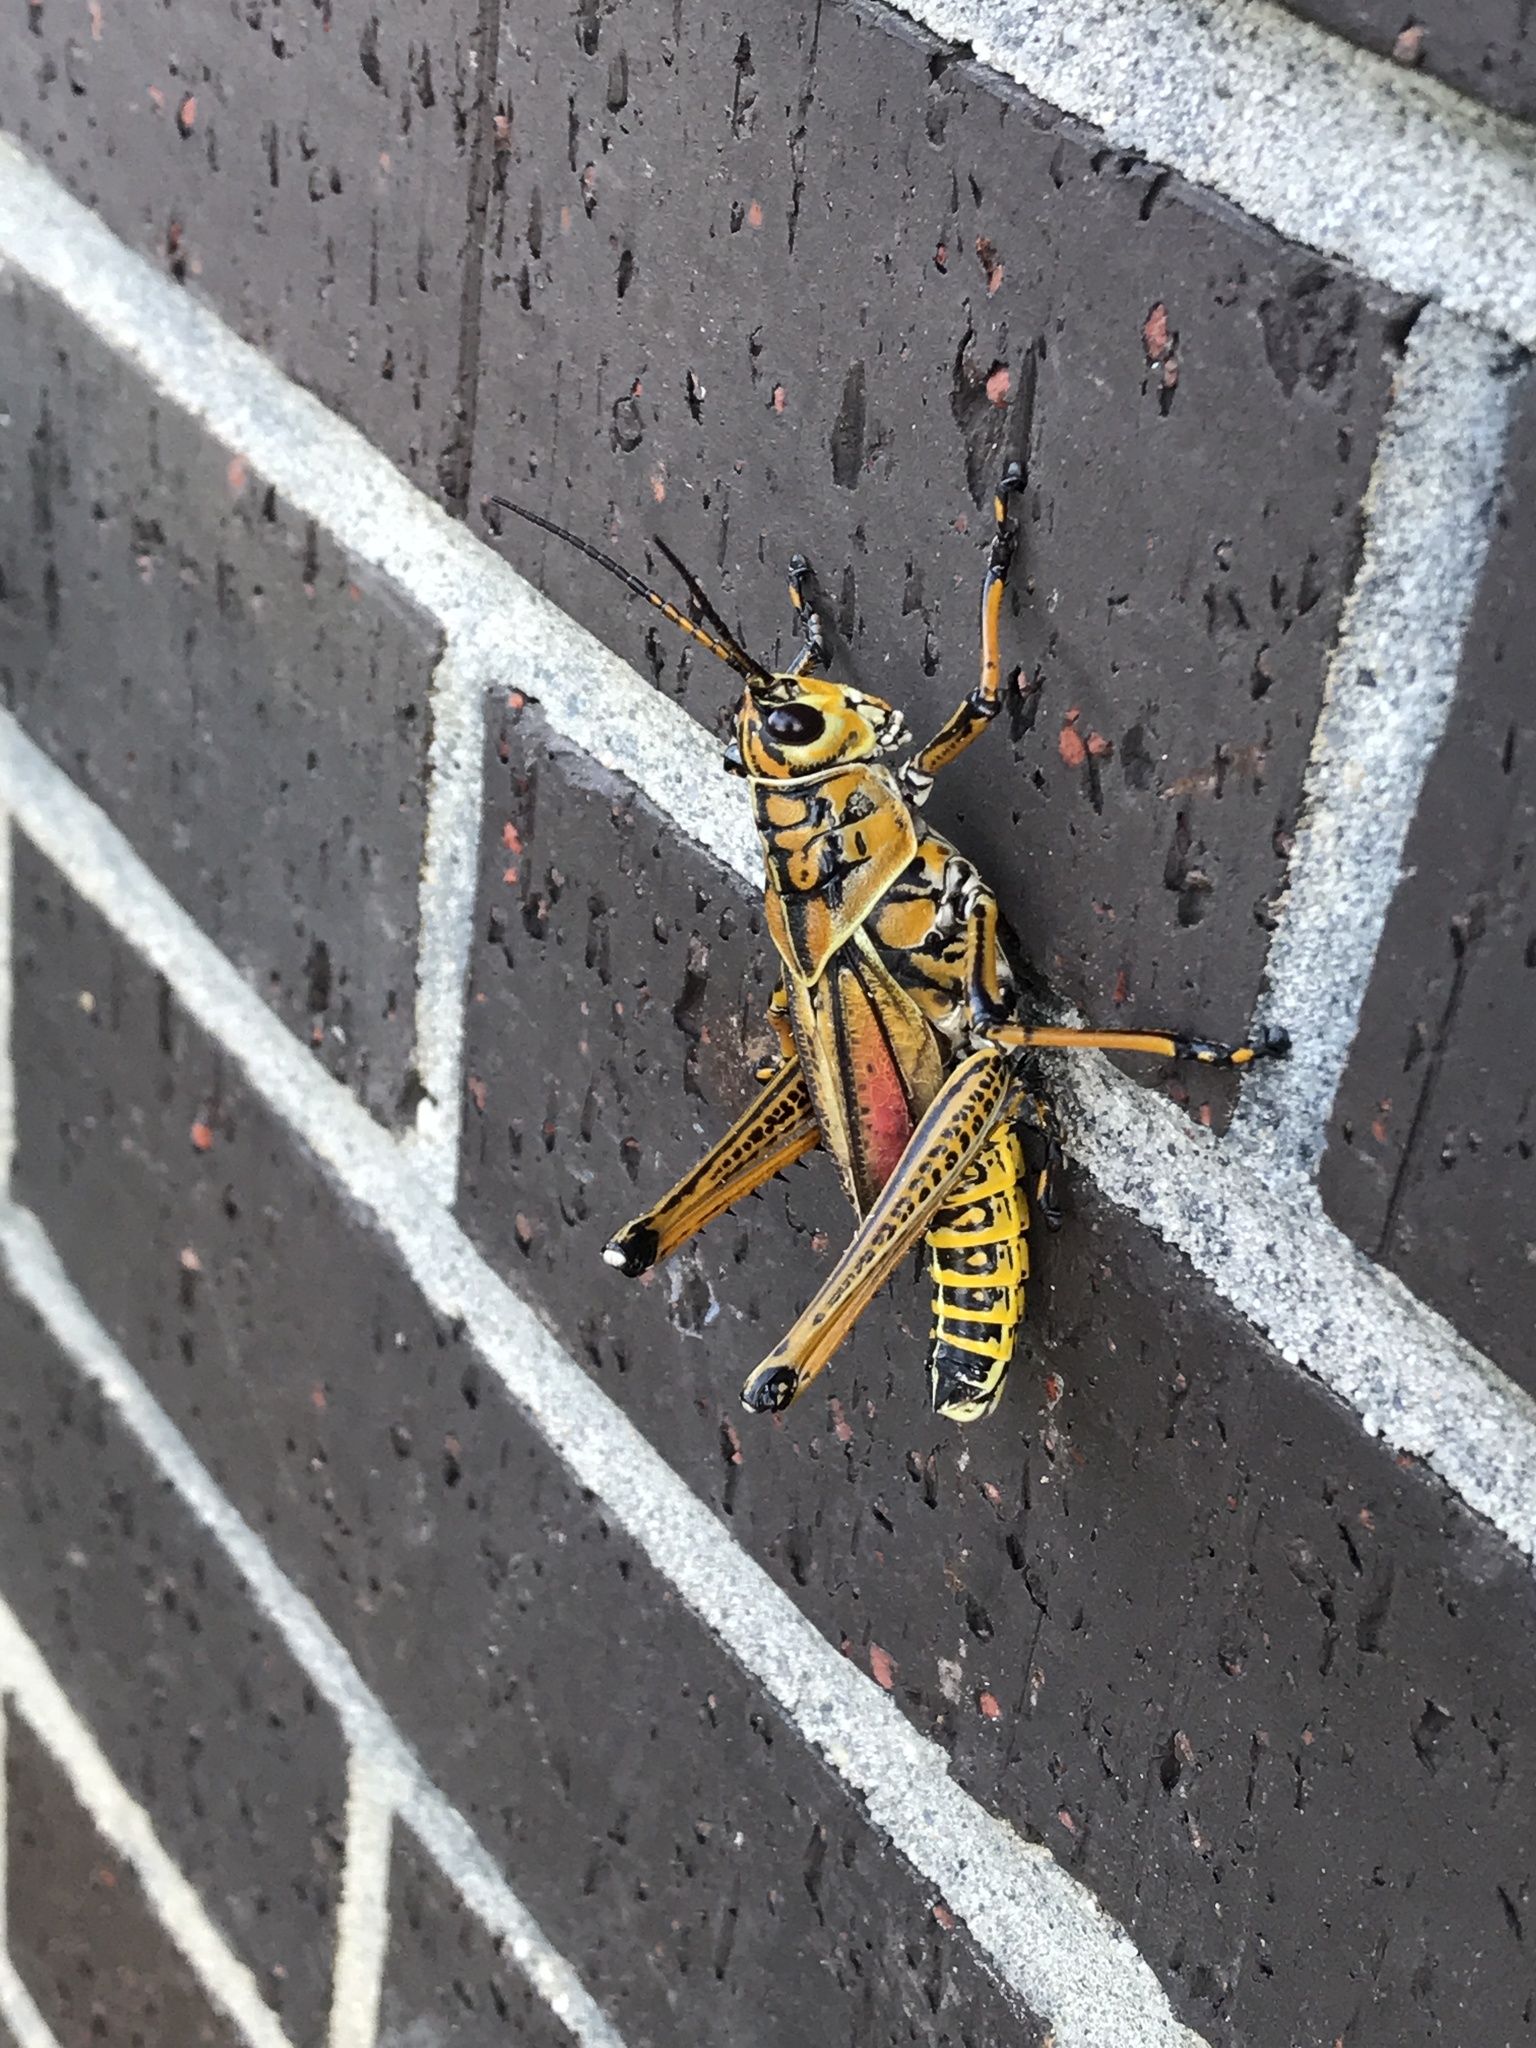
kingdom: Animalia
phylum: Arthropoda
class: Insecta
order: Orthoptera
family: Romaleidae
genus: Romalea
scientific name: Romalea microptera
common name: Eastern lubber grasshopper
